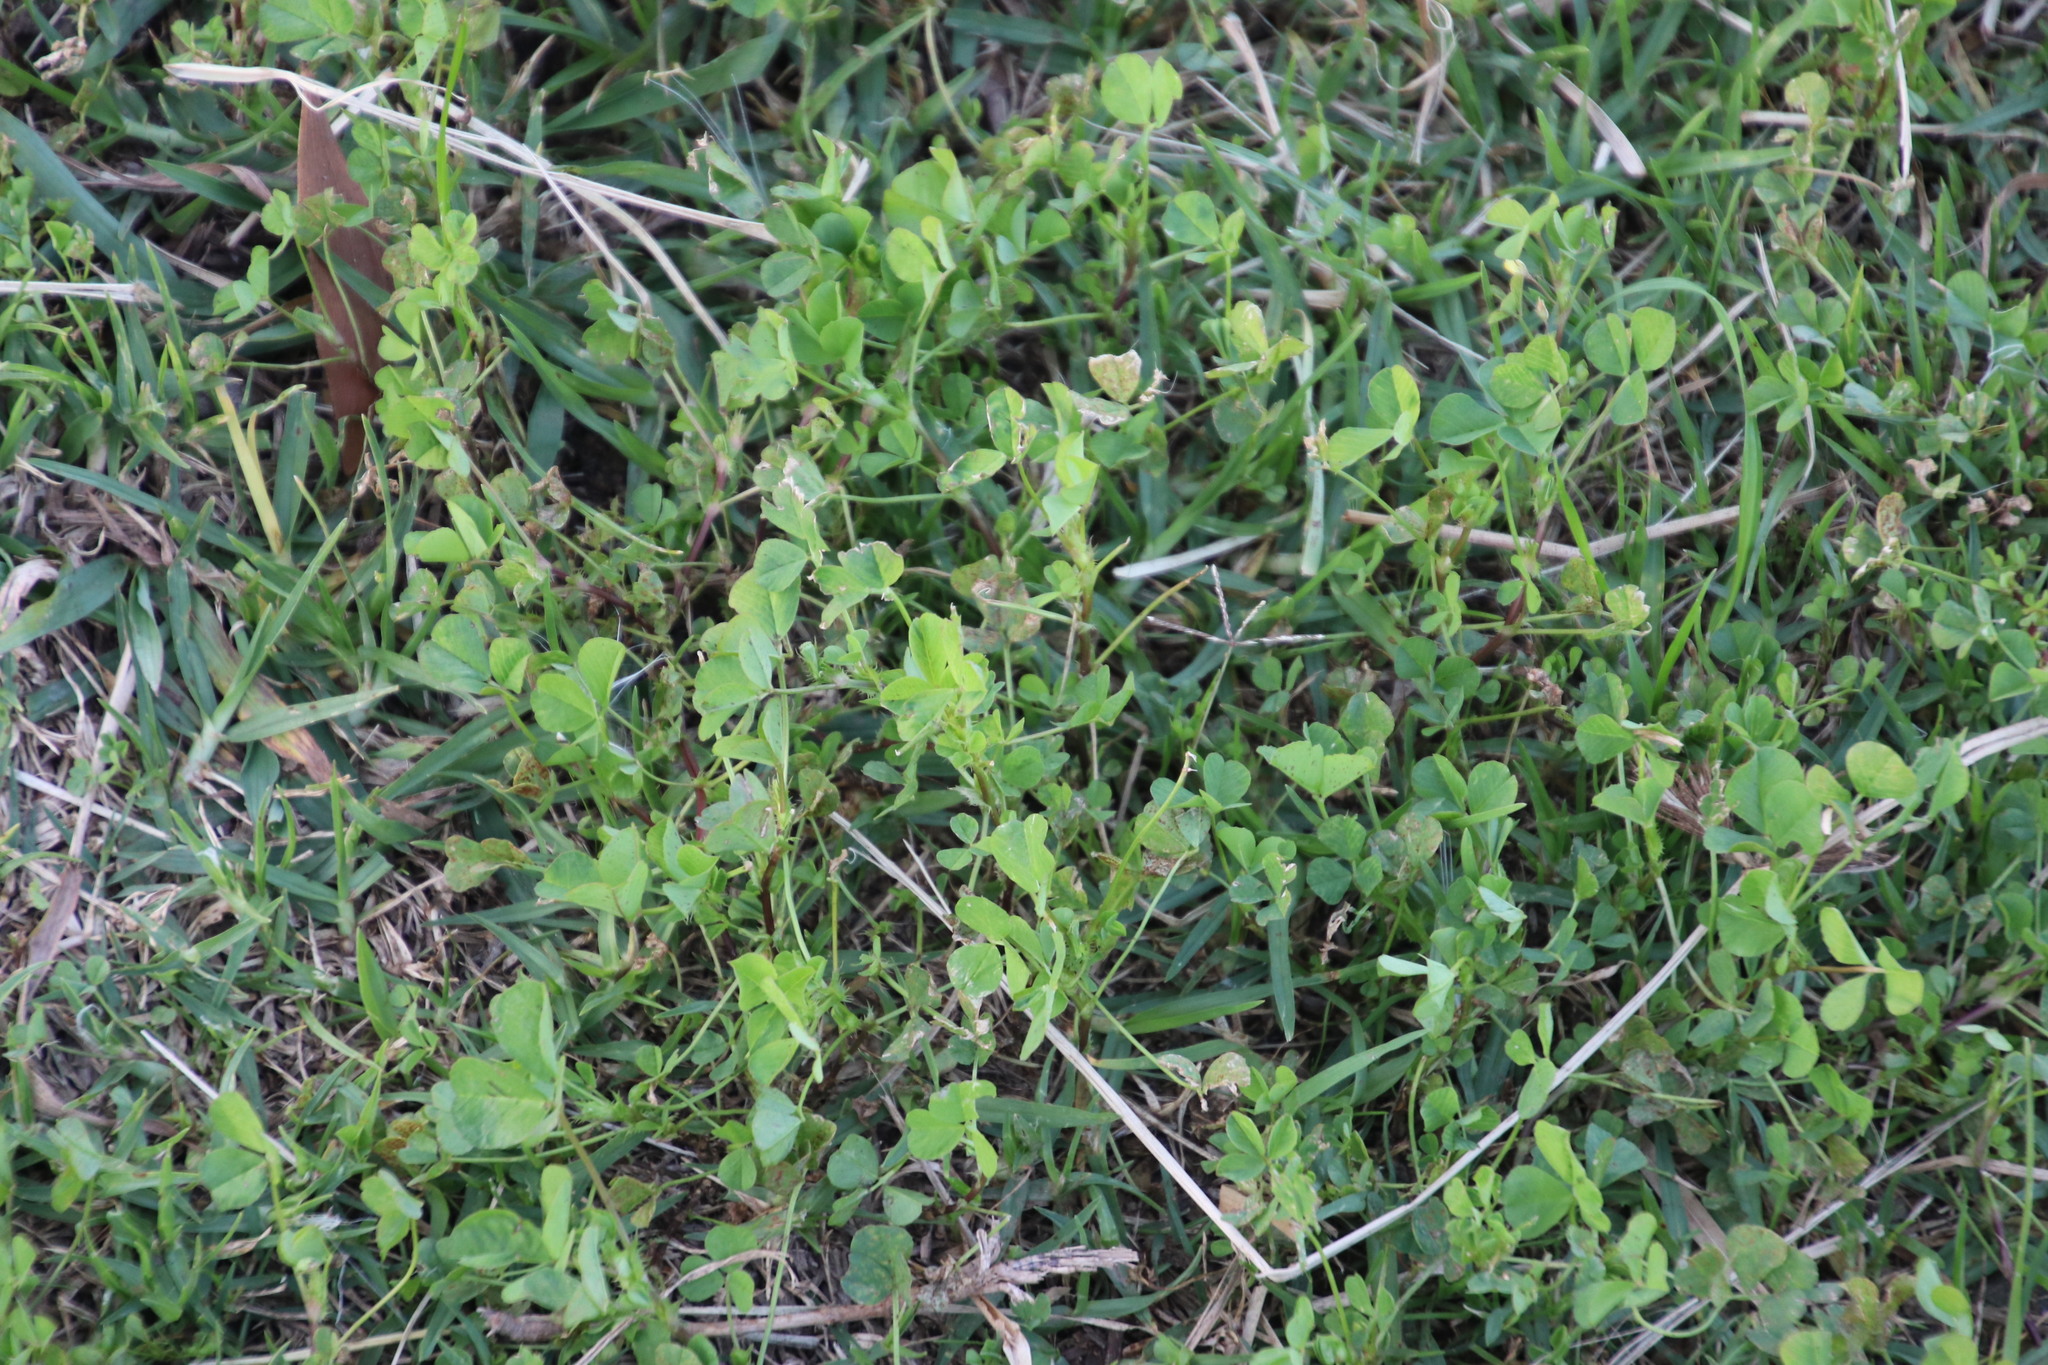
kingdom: Plantae
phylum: Tracheophyta
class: Magnoliopsida
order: Fabales
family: Fabaceae
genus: Medicago
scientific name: Medicago polymorpha
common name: Burclover
